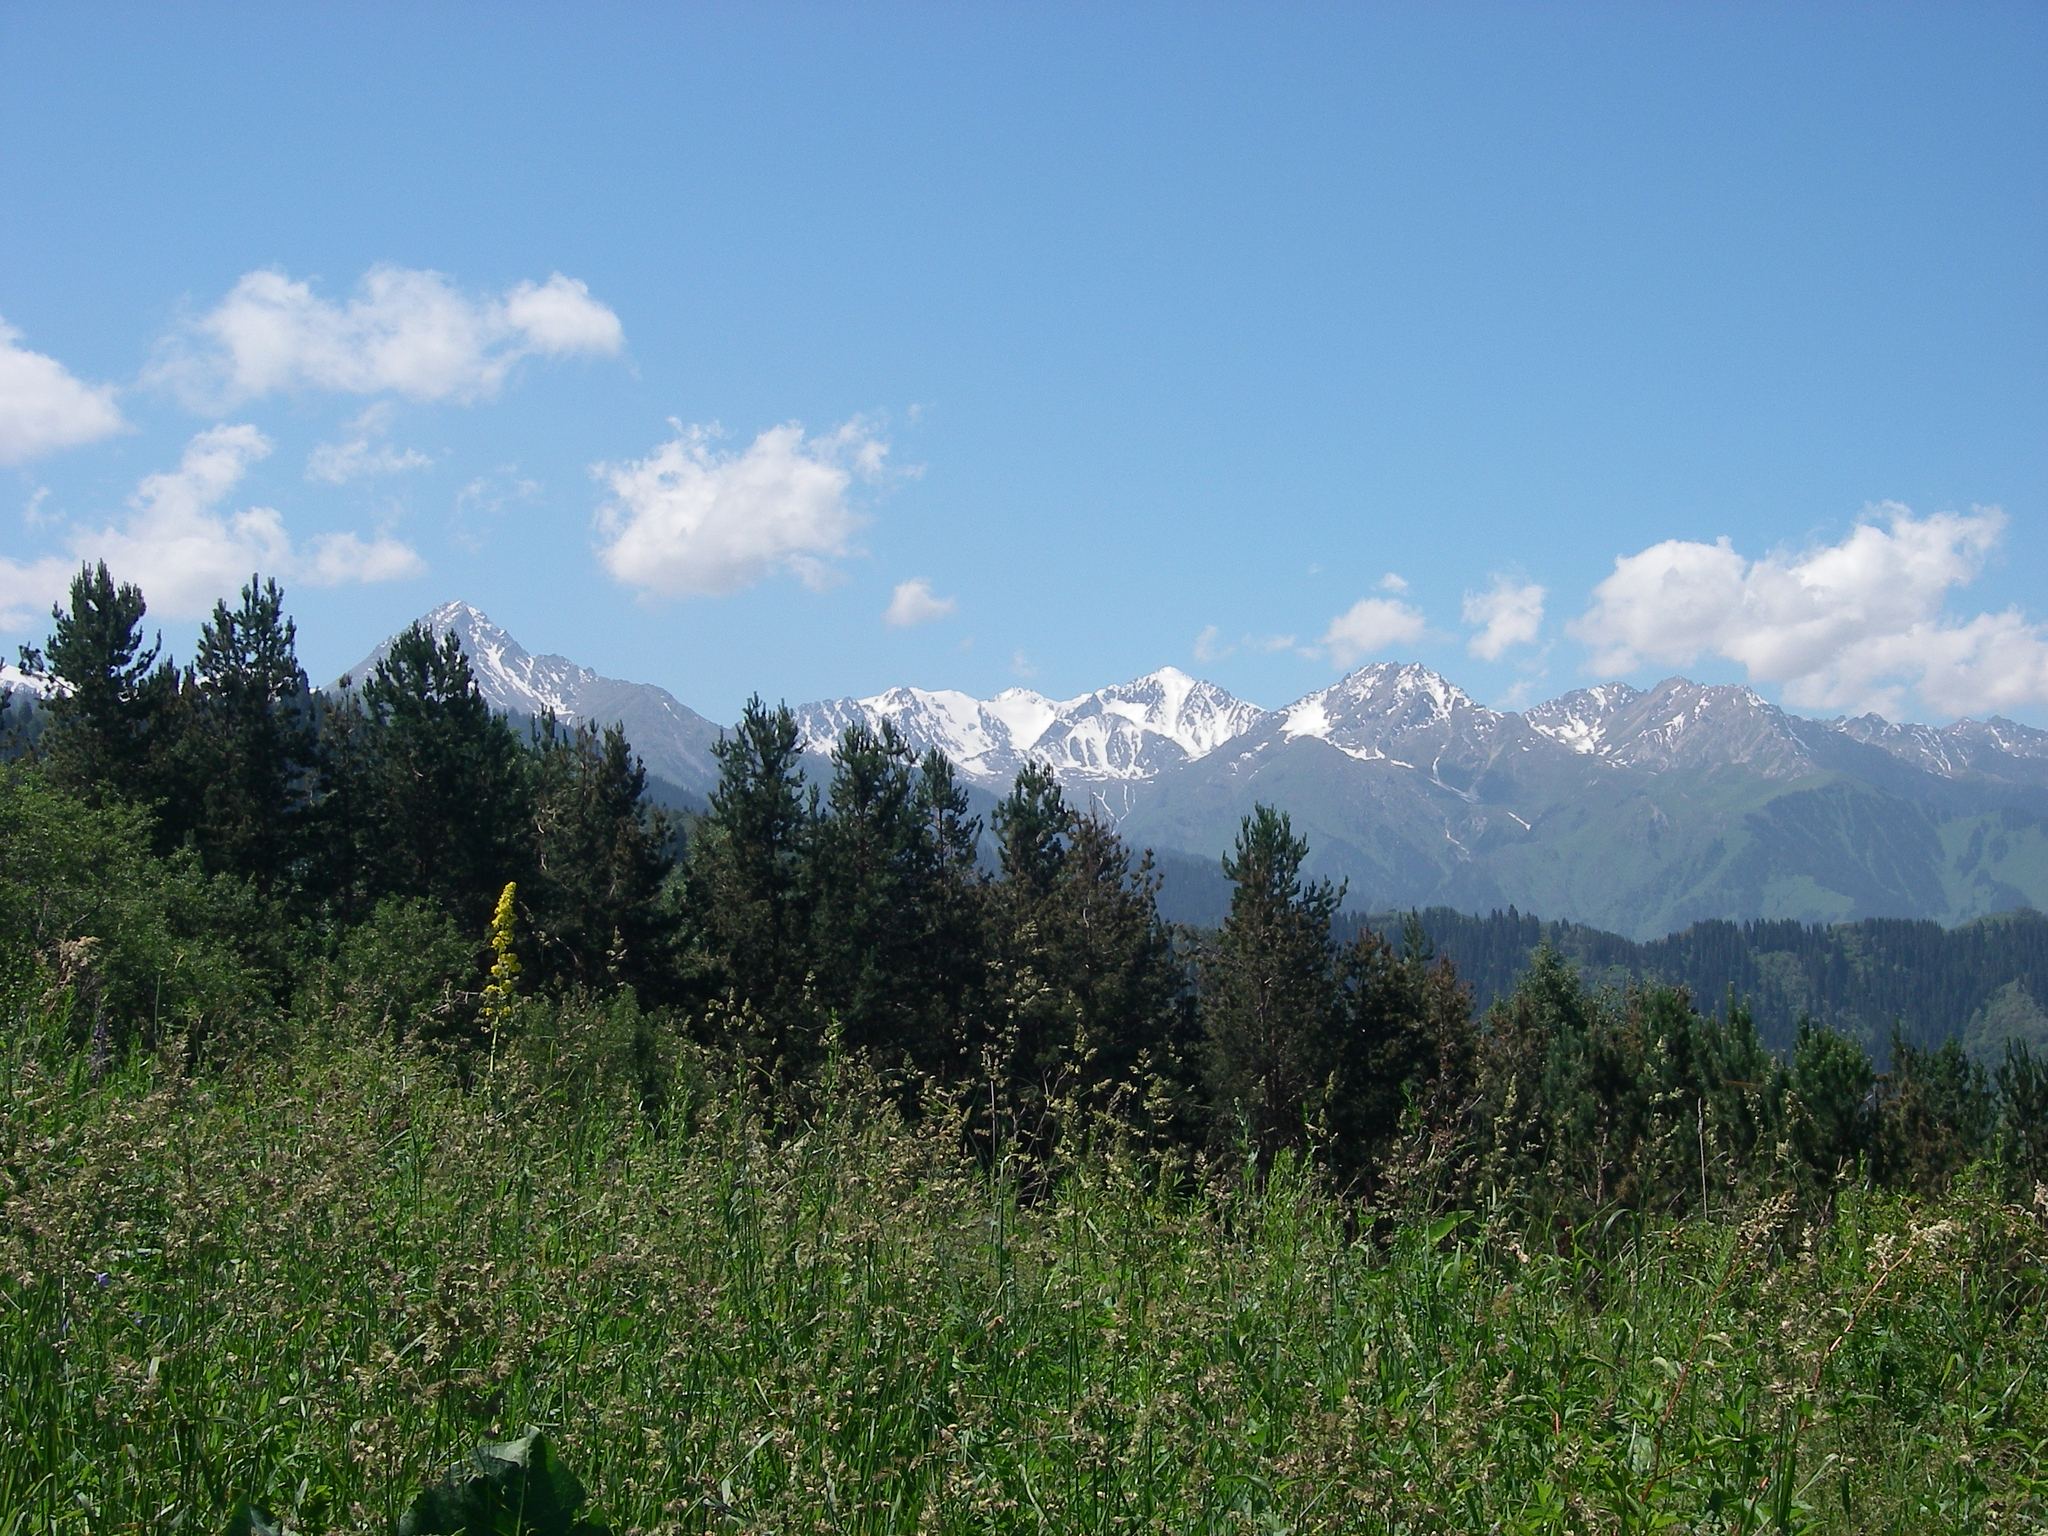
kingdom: Plantae
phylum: Tracheophyta
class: Pinopsida
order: Pinales
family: Pinaceae
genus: Pinus
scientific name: Pinus sylvestris
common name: Scots pine
